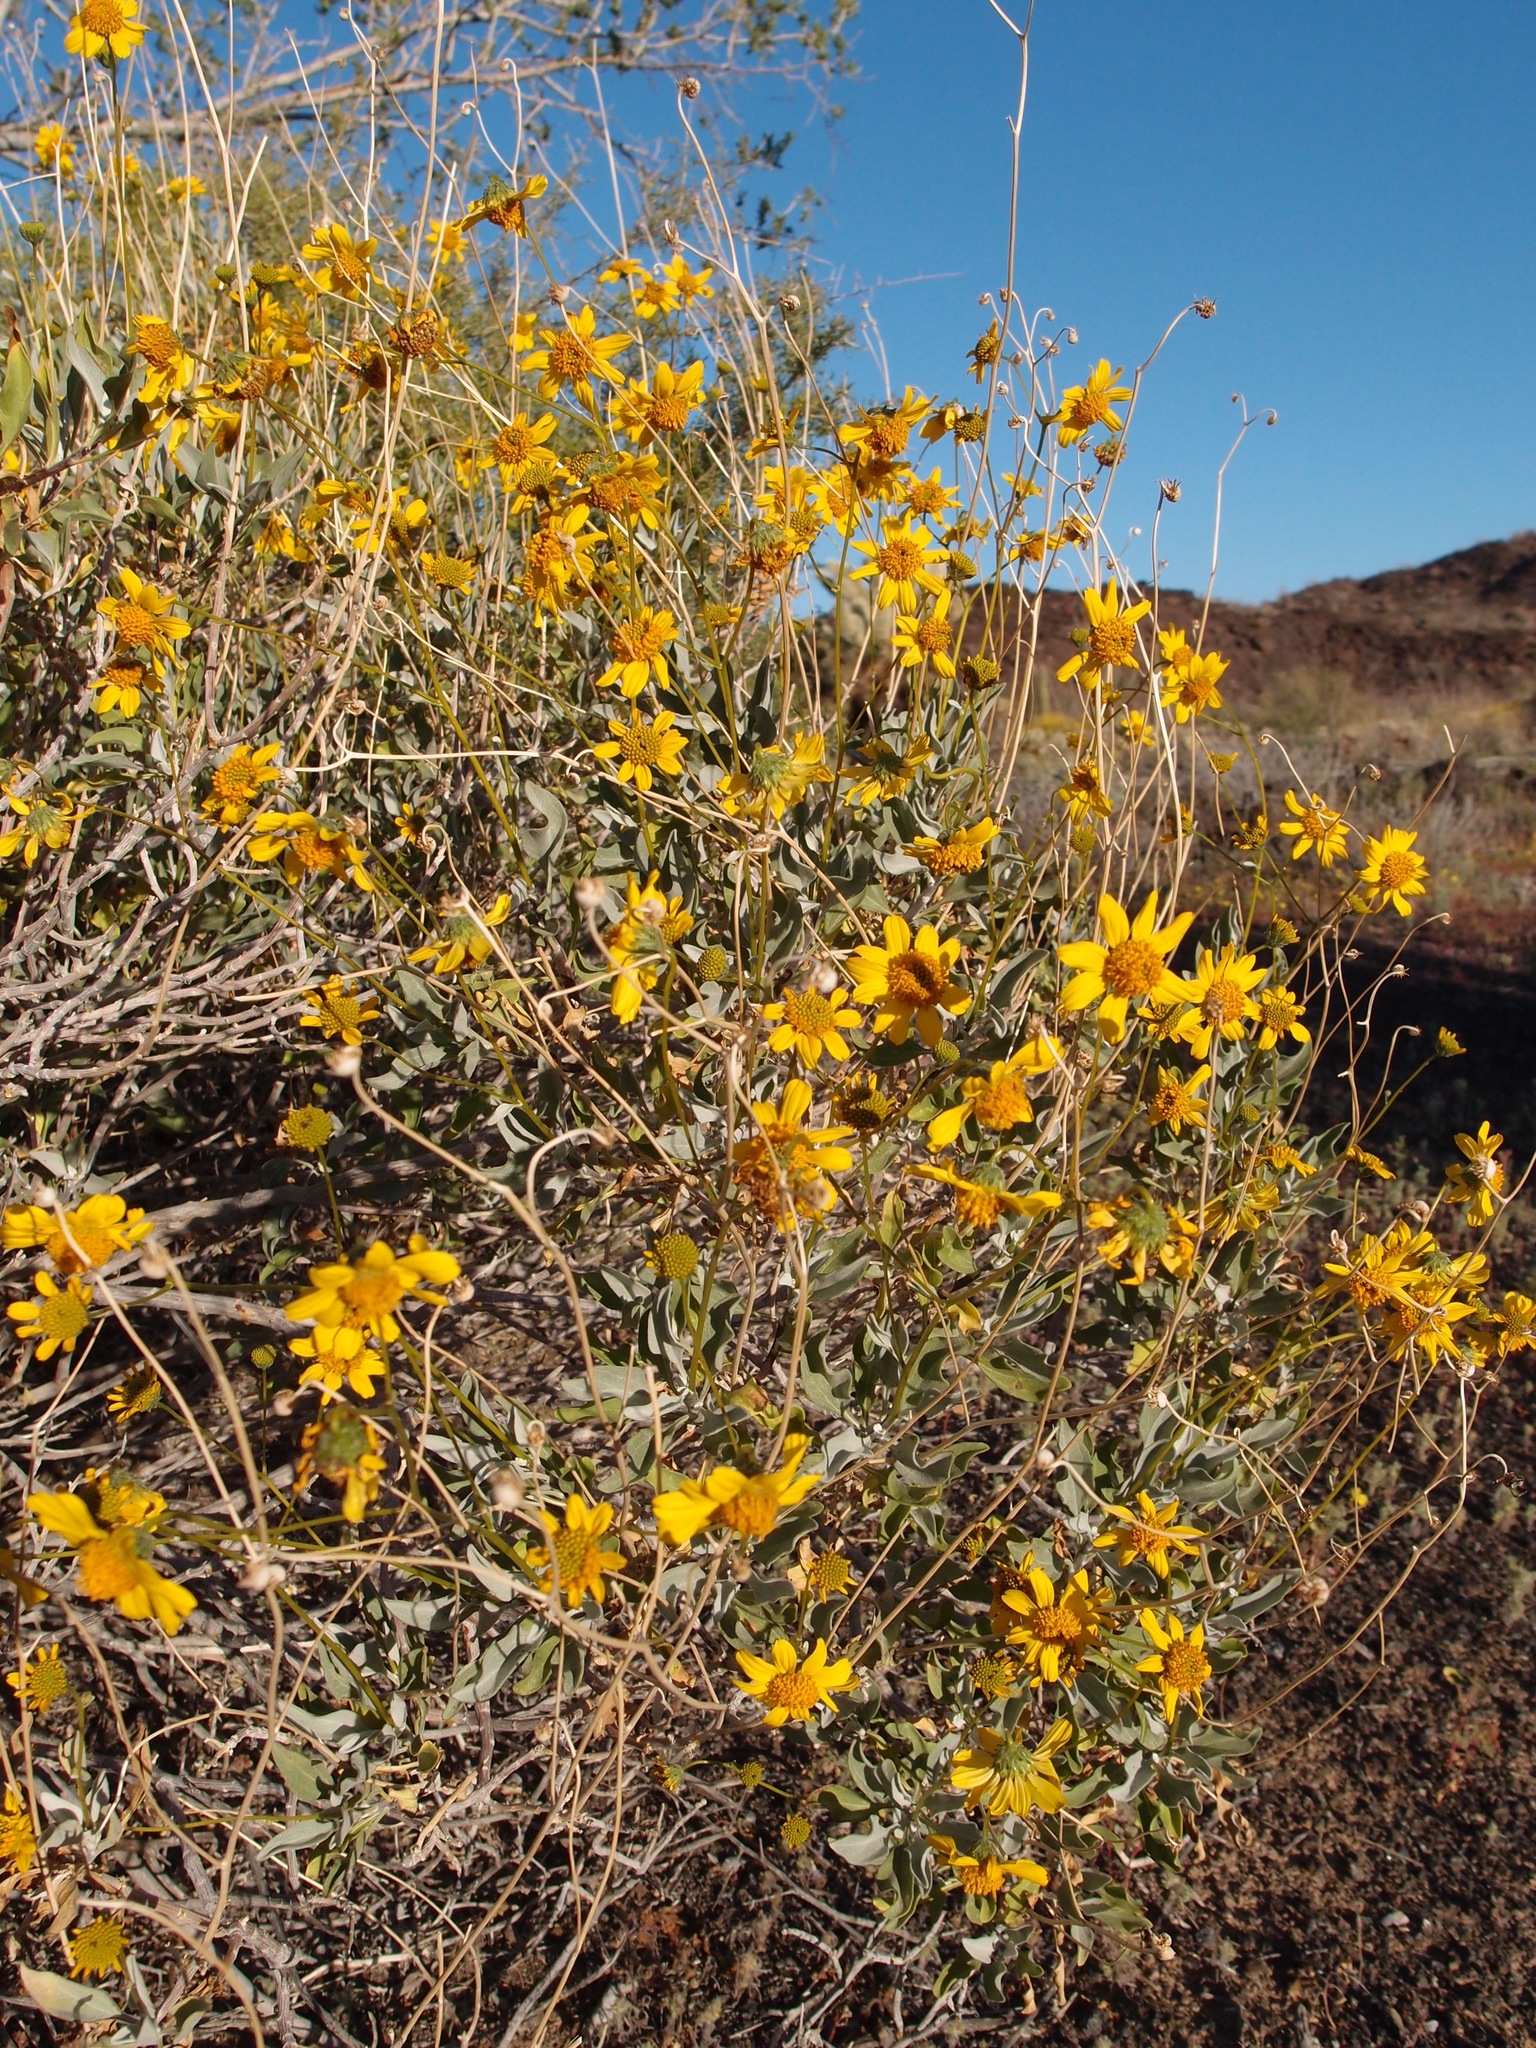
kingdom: Plantae
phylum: Tracheophyta
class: Magnoliopsida
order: Asterales
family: Asteraceae
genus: Encelia
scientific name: Encelia farinosa
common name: Brittlebush
